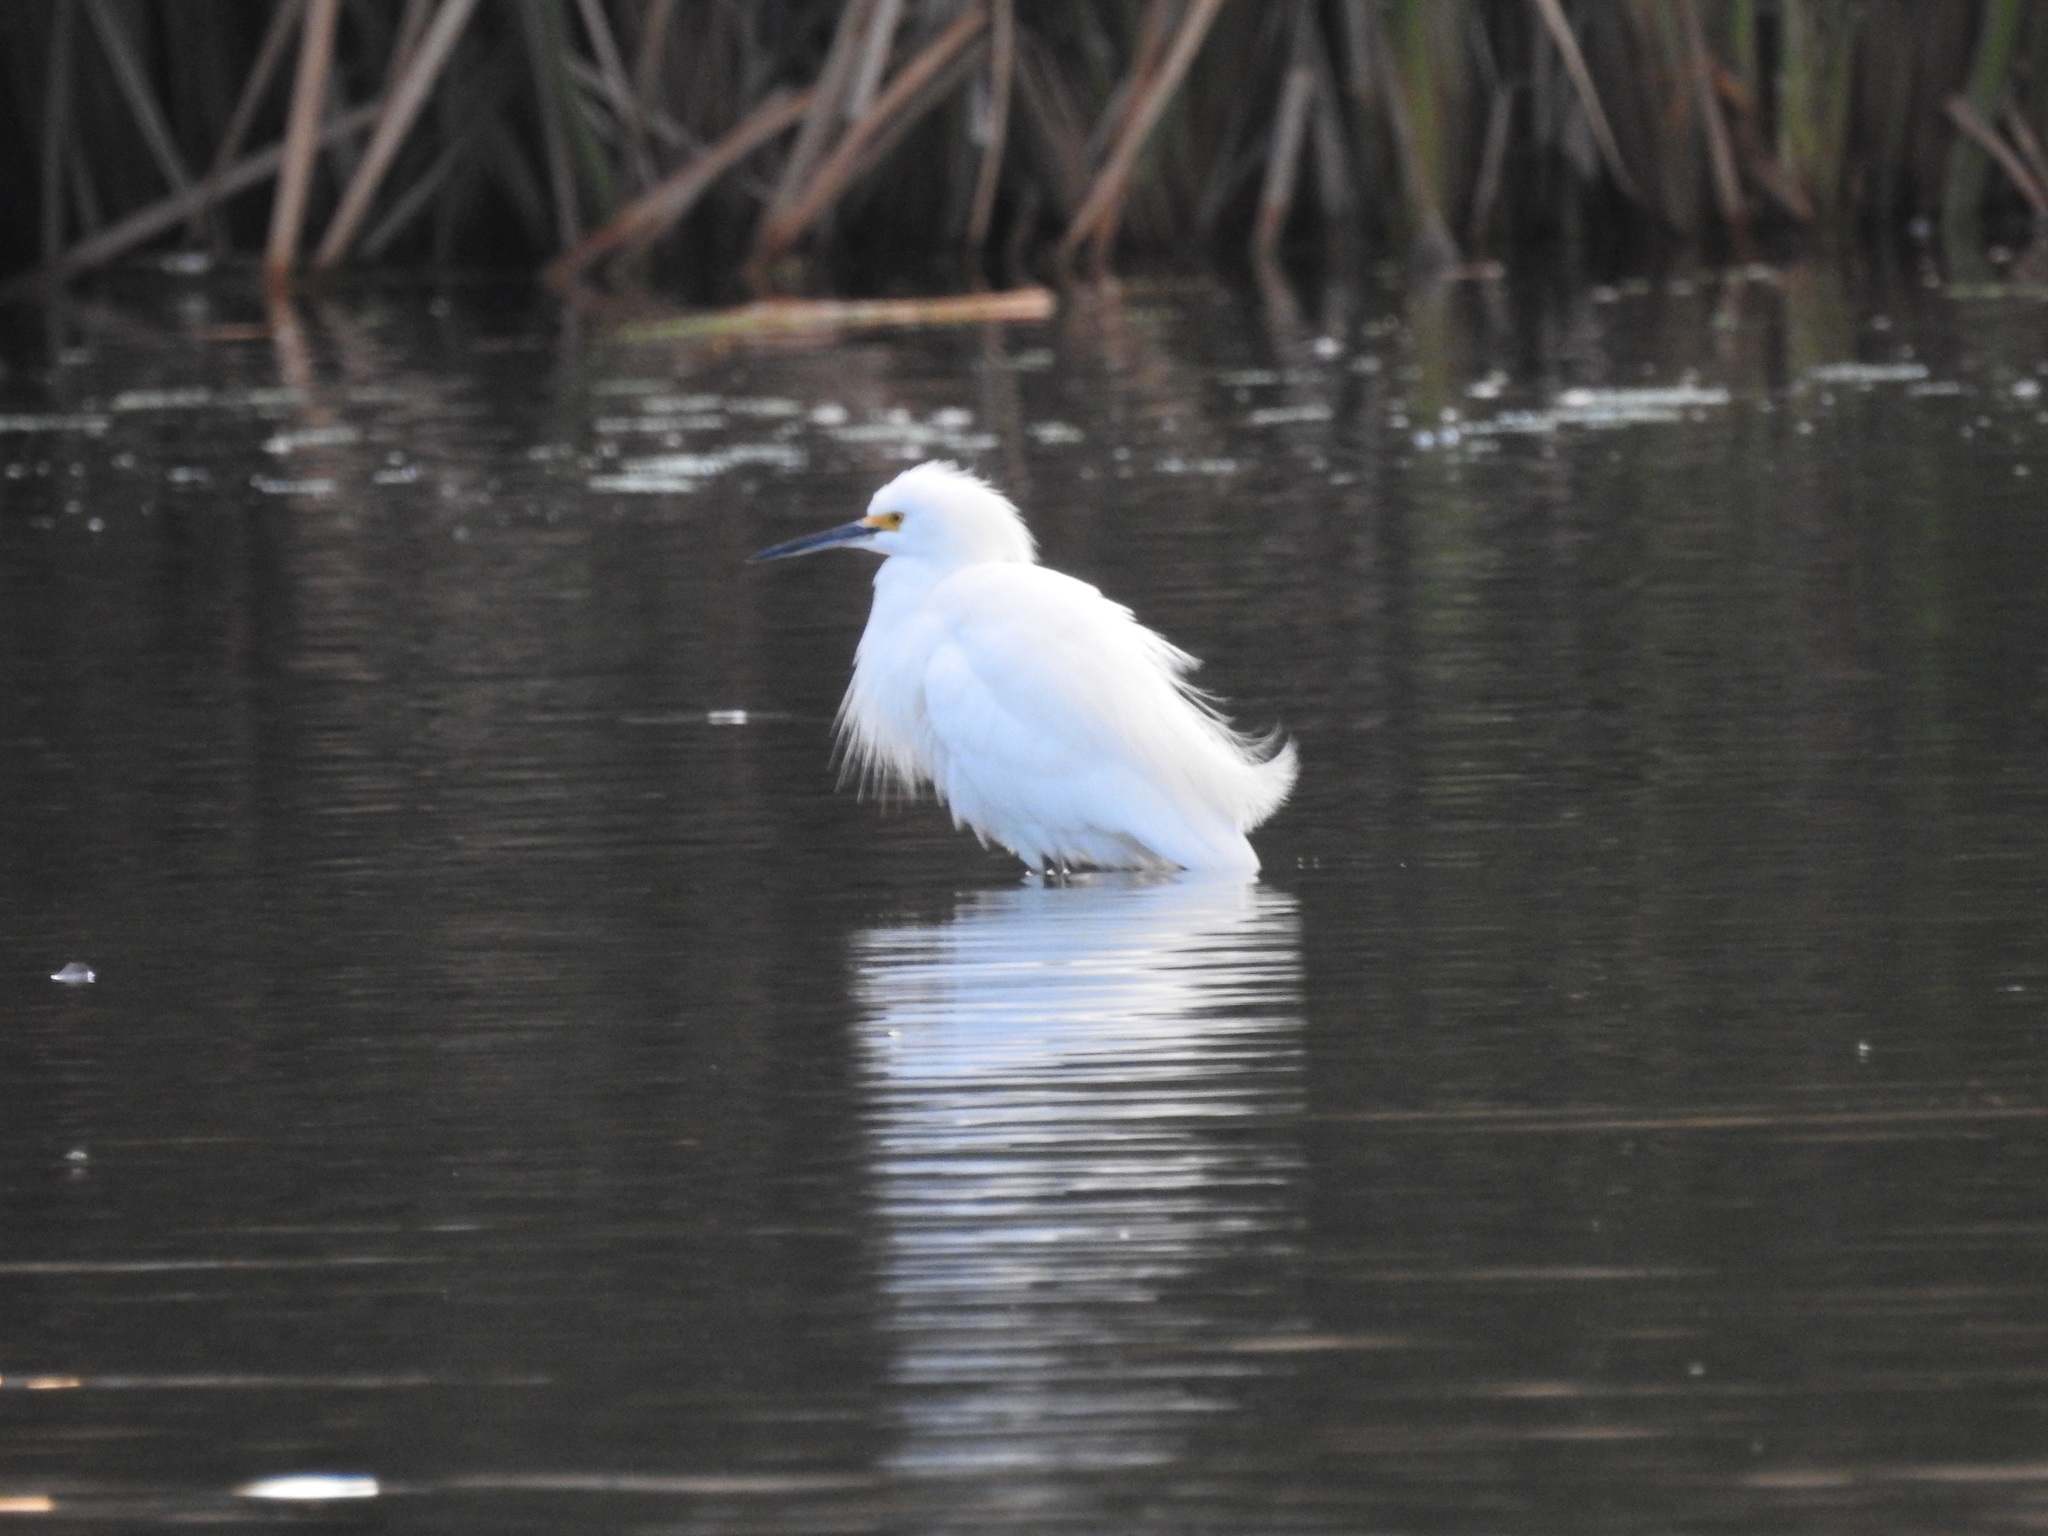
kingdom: Animalia
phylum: Chordata
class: Aves
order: Pelecaniformes
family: Ardeidae
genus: Egretta
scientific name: Egretta thula
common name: Snowy egret
